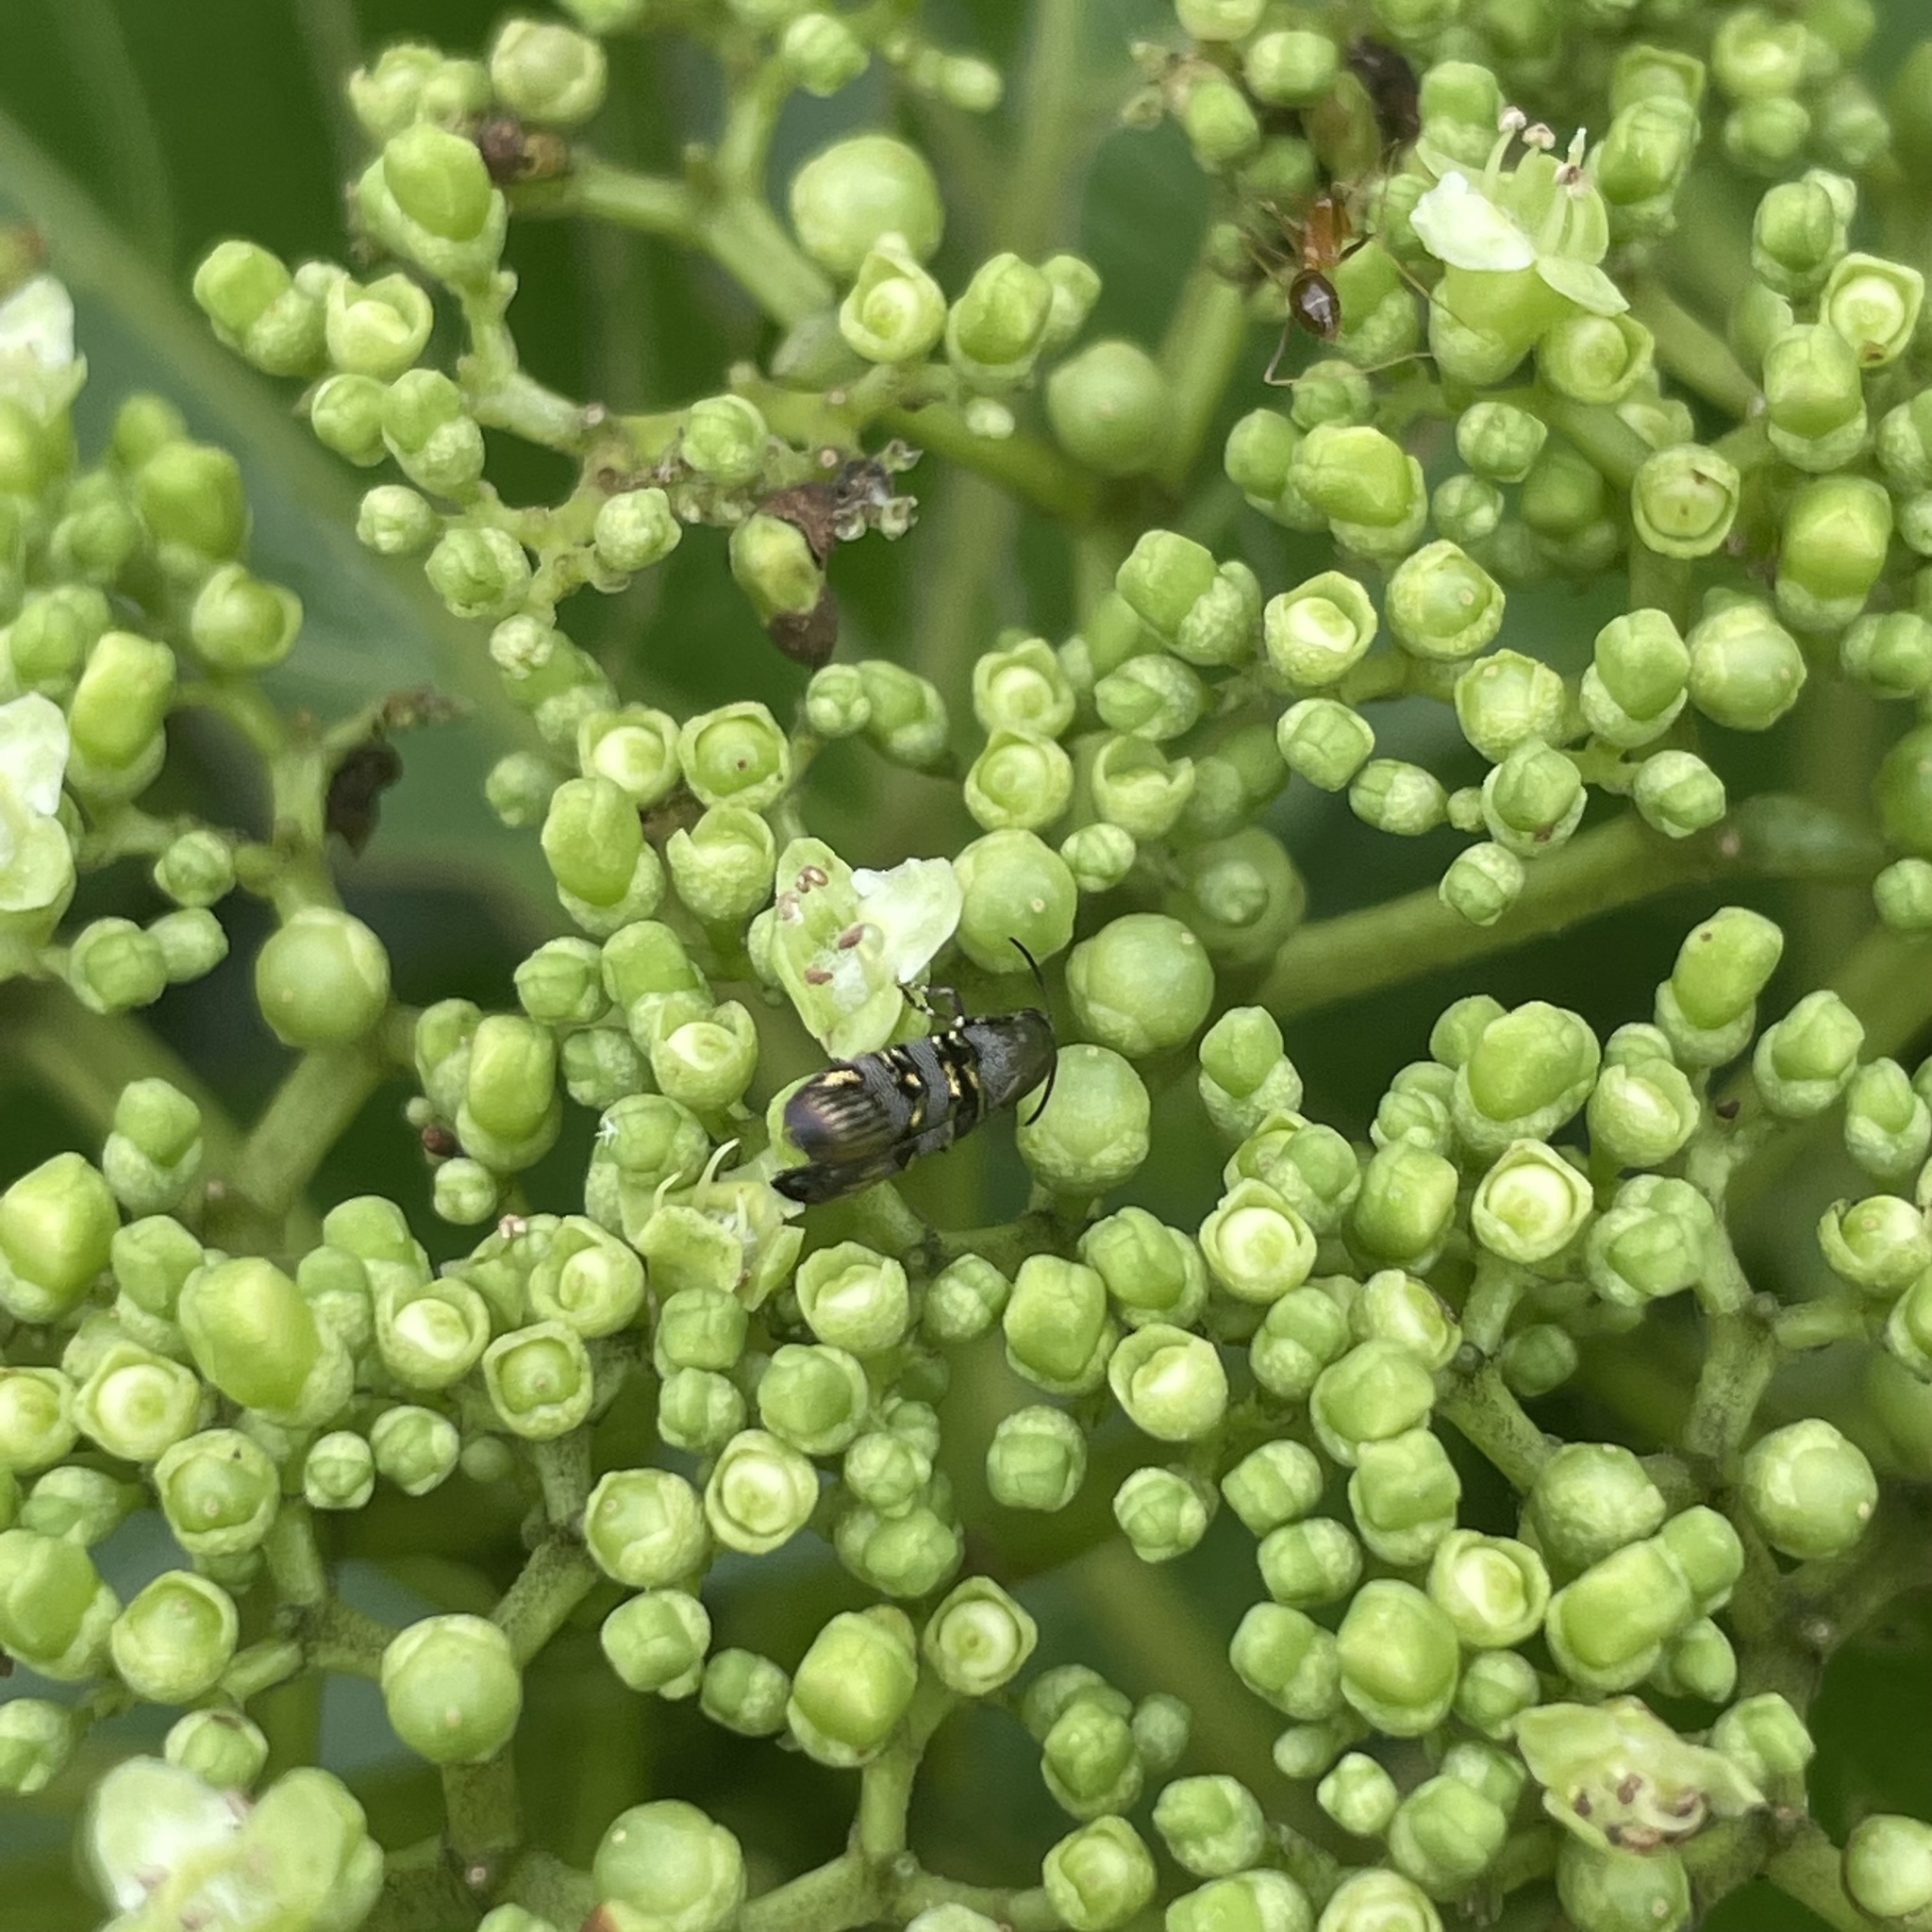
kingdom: Animalia
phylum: Arthropoda
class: Insecta
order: Lepidoptera
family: Brachodidae
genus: Phycodes
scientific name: Phycodes limata
